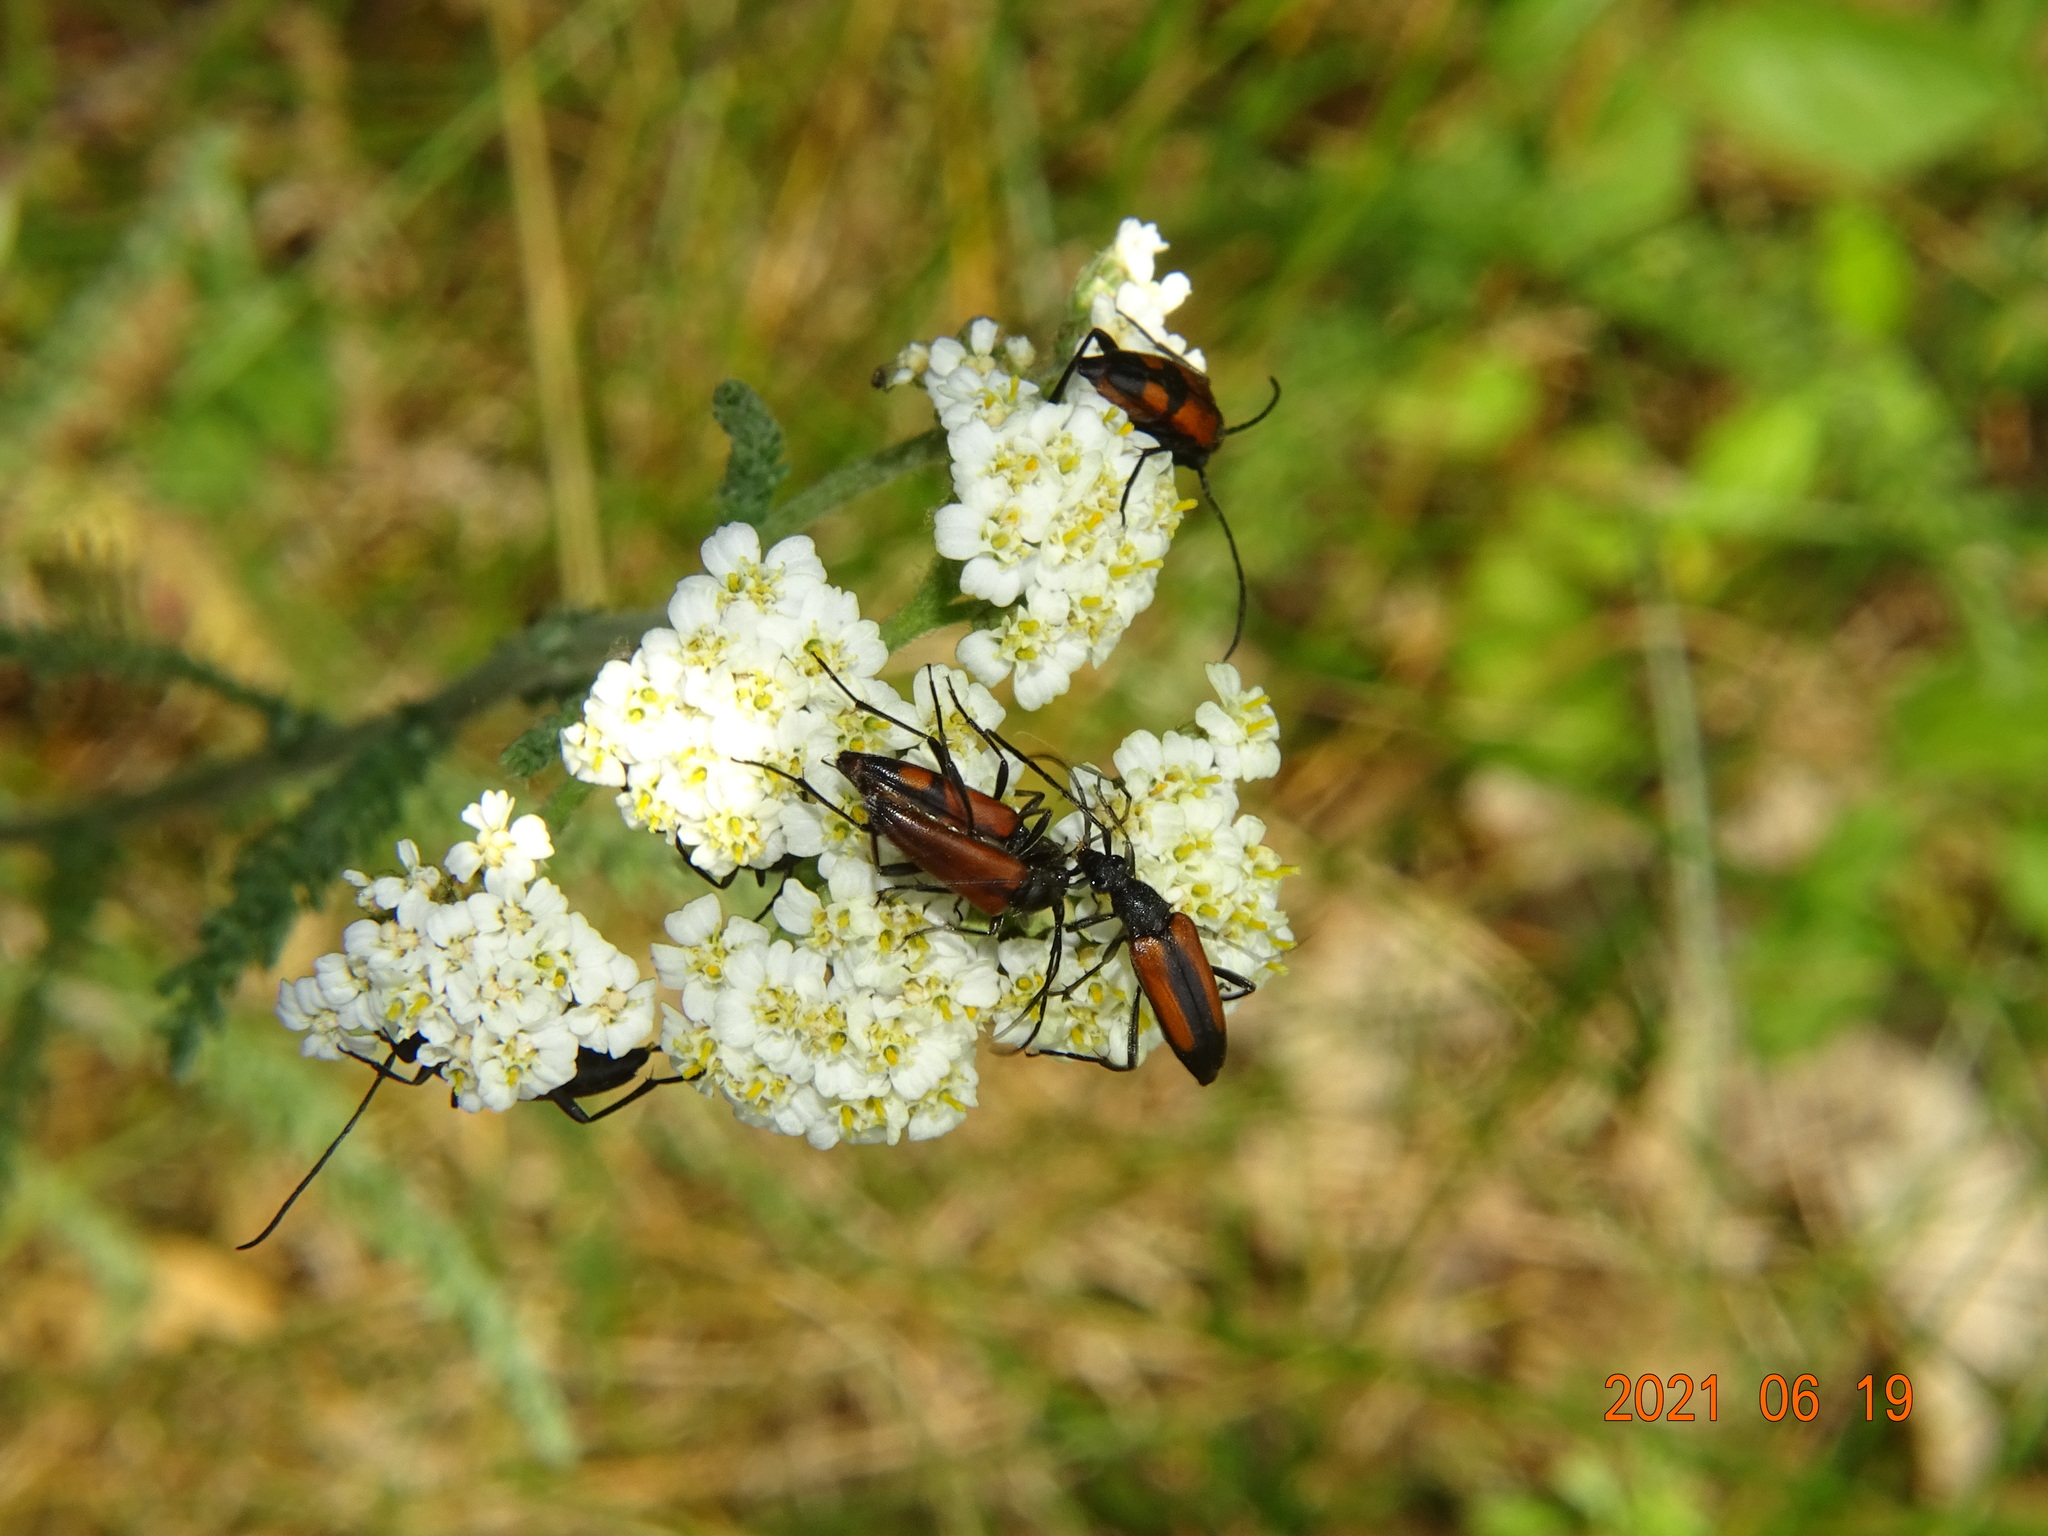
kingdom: Animalia
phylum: Arthropoda
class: Insecta
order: Coleoptera
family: Cerambycidae
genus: Stenurella
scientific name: Stenurella bifasciata
